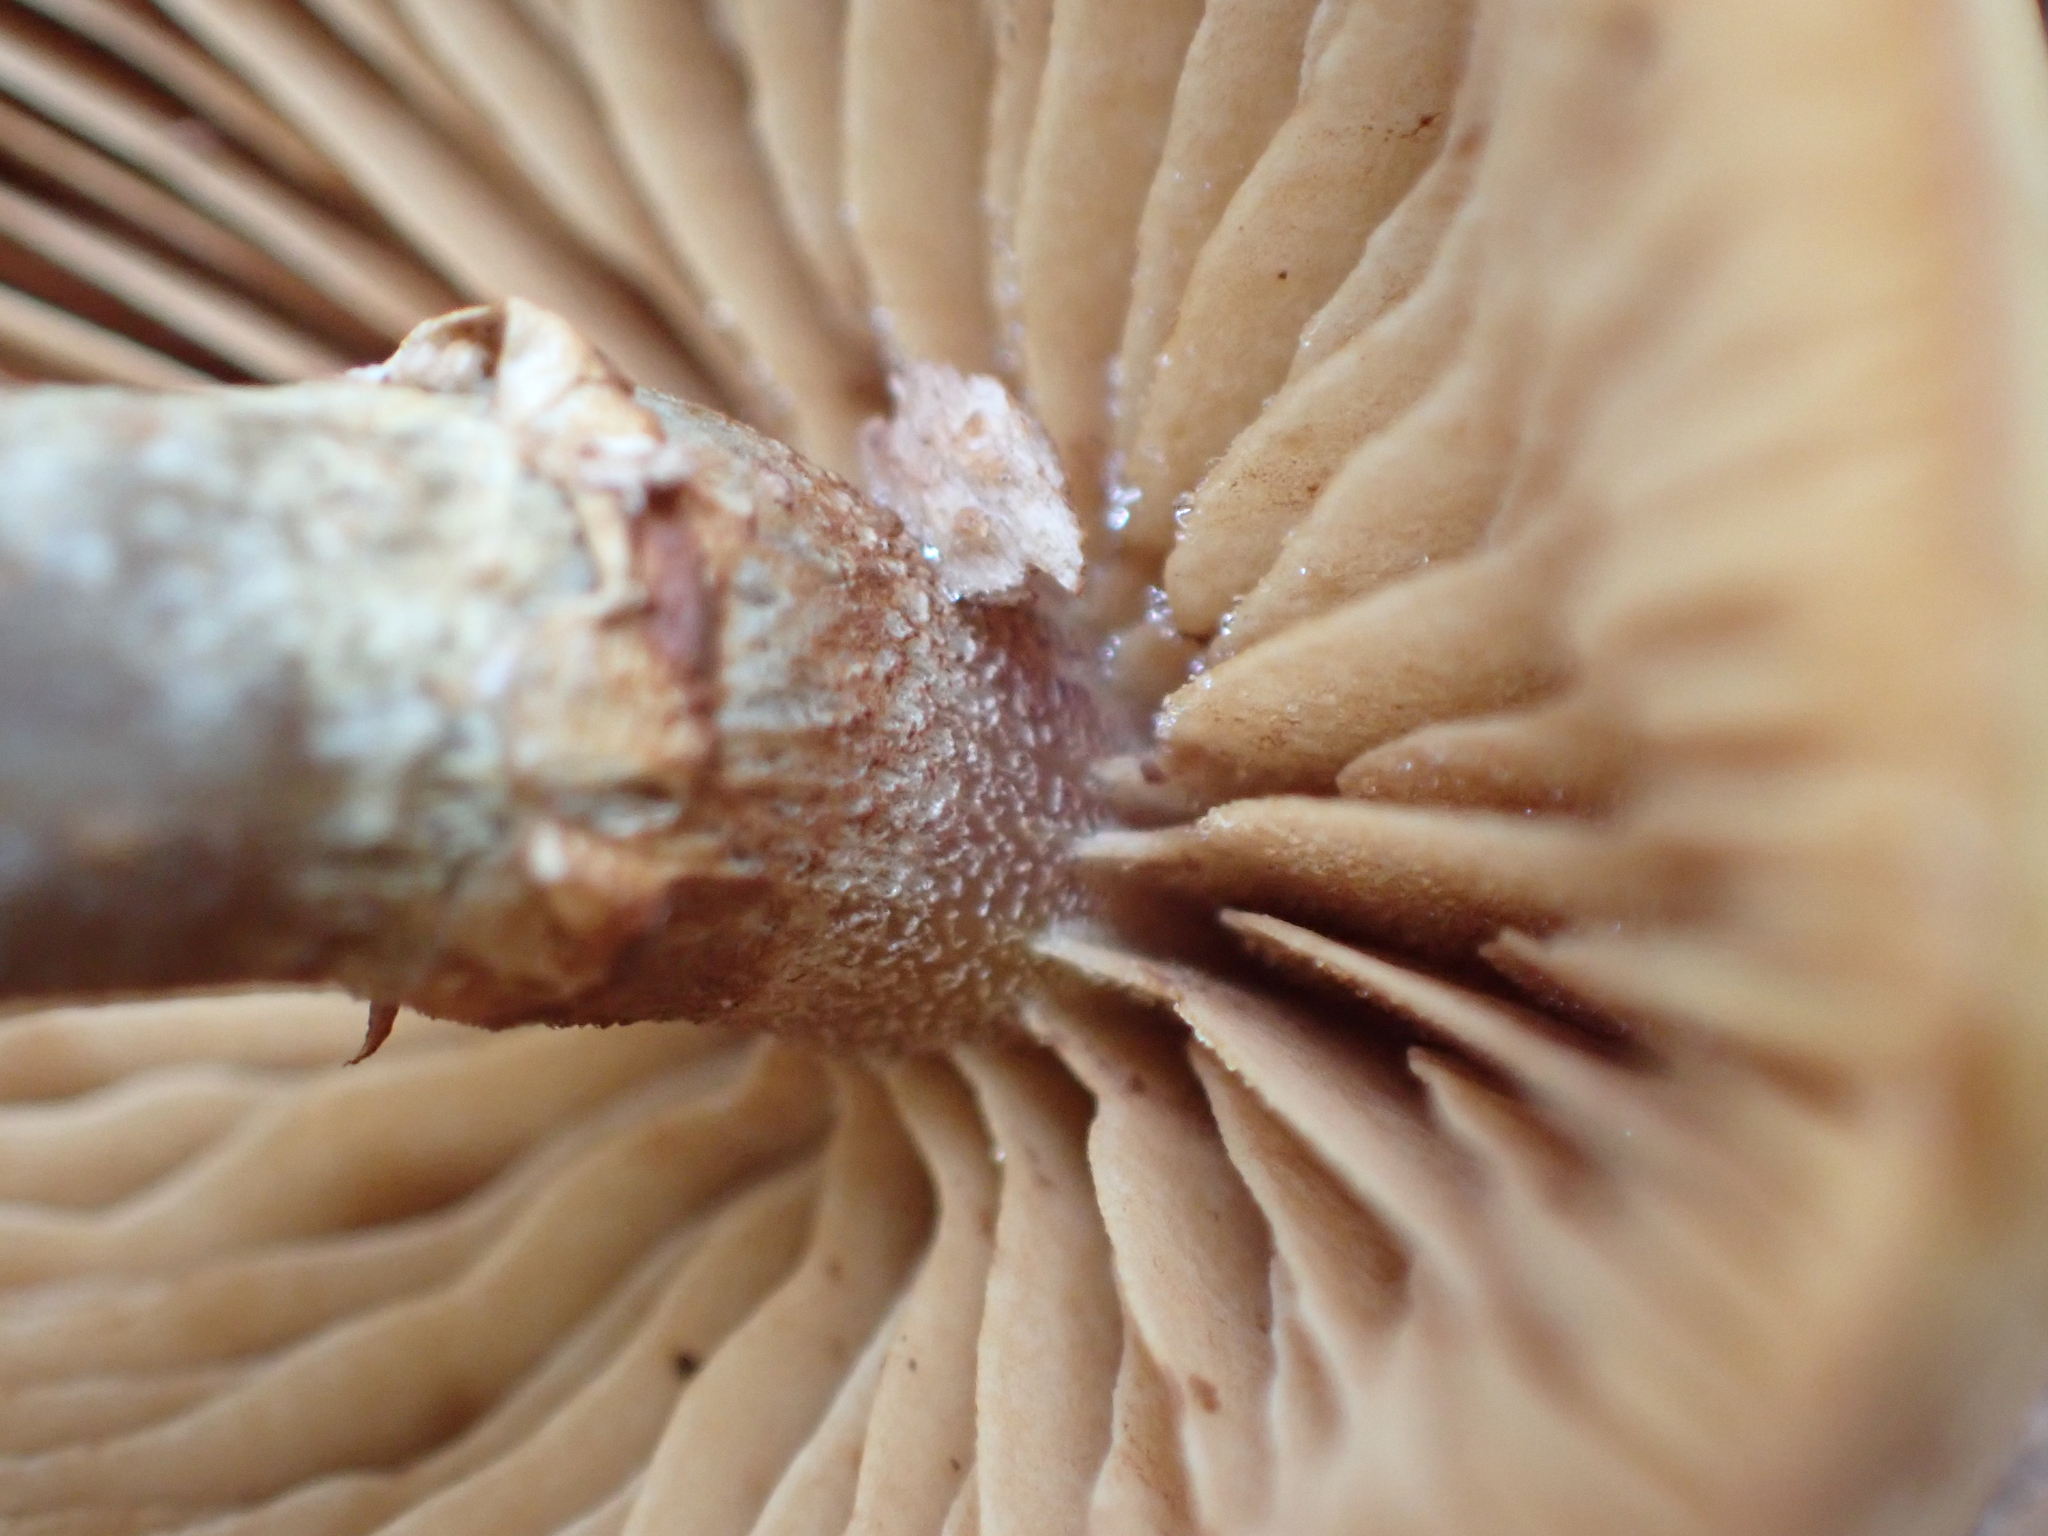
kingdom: Fungi
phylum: Basidiomycota
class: Agaricomycetes
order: Agaricales
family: Hymenogastraceae
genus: Galerina
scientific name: Galerina marginata
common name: Funeral bell
